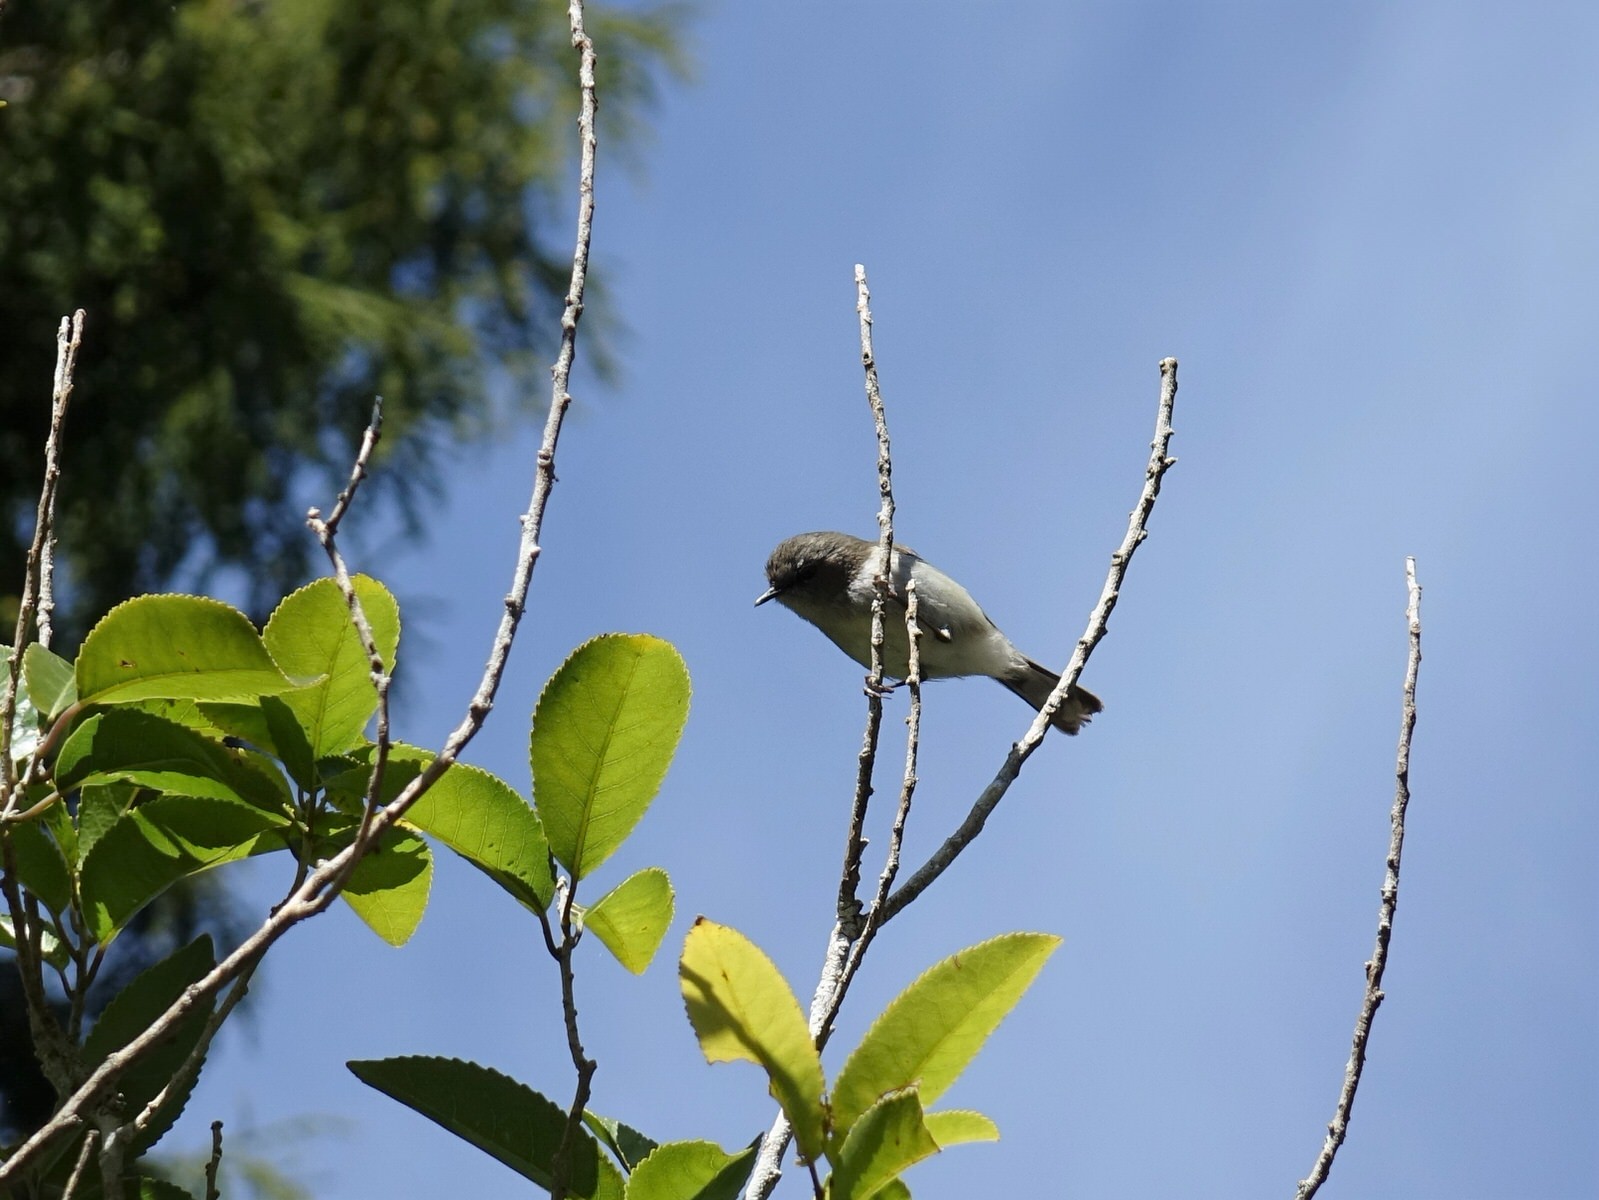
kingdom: Animalia
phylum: Chordata
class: Aves
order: Passeriformes
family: Acanthizidae
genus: Gerygone
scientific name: Gerygone igata
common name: Grey gerygone
